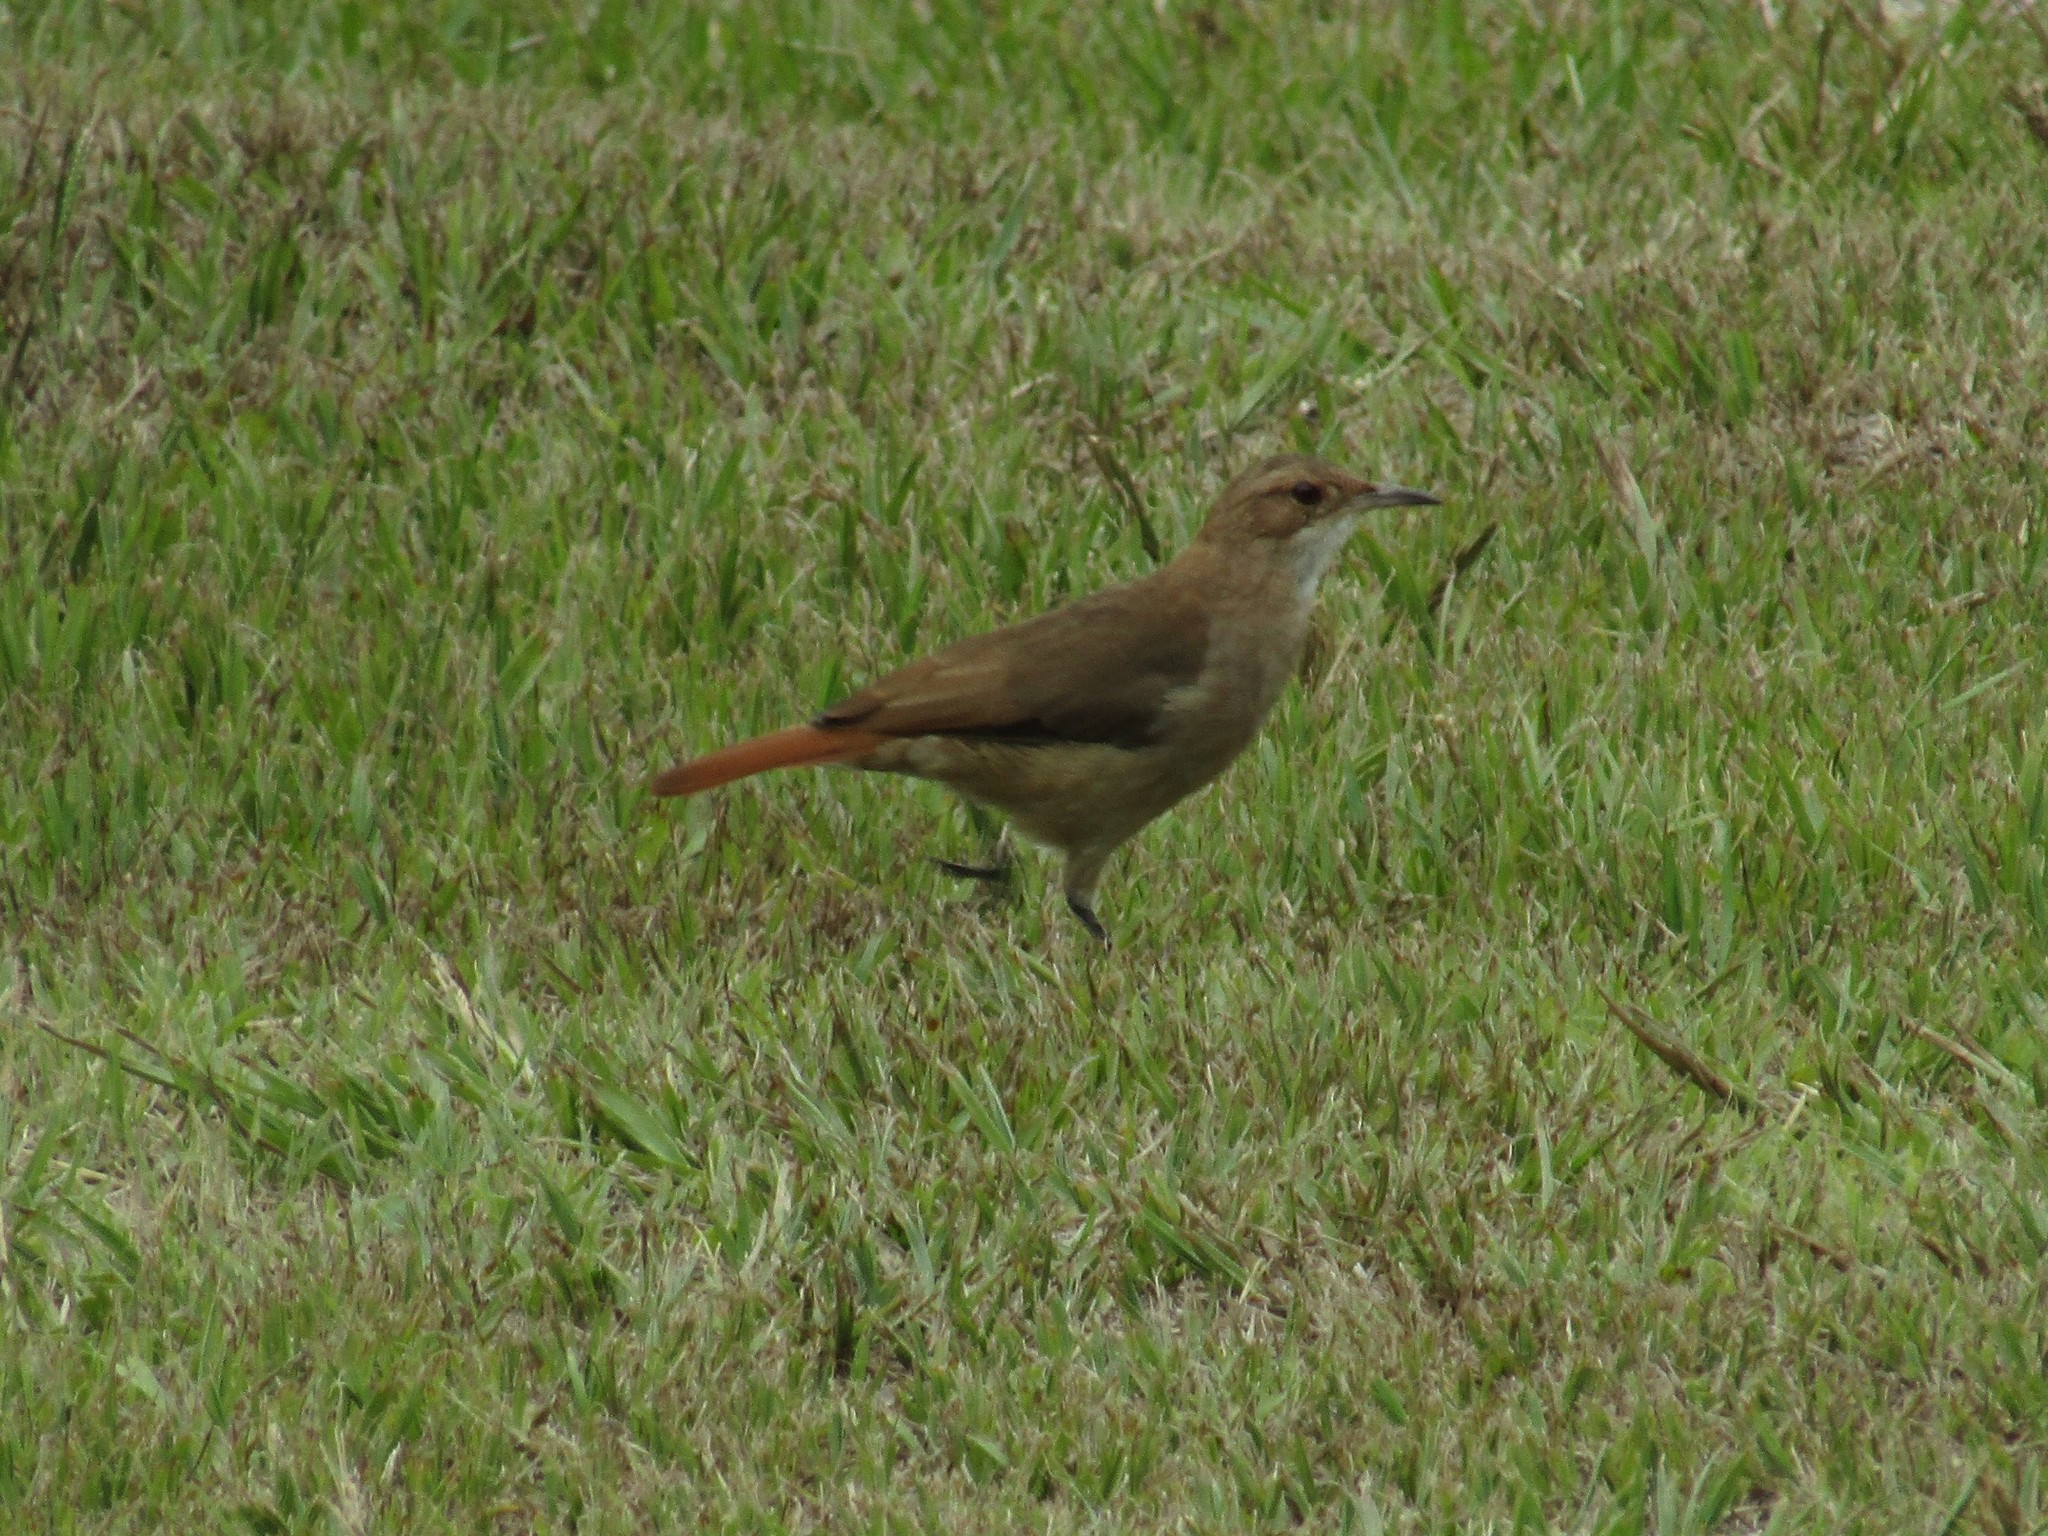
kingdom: Animalia
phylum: Chordata
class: Aves
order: Passeriformes
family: Furnariidae
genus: Furnarius
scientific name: Furnarius rufus
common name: Rufous hornero
